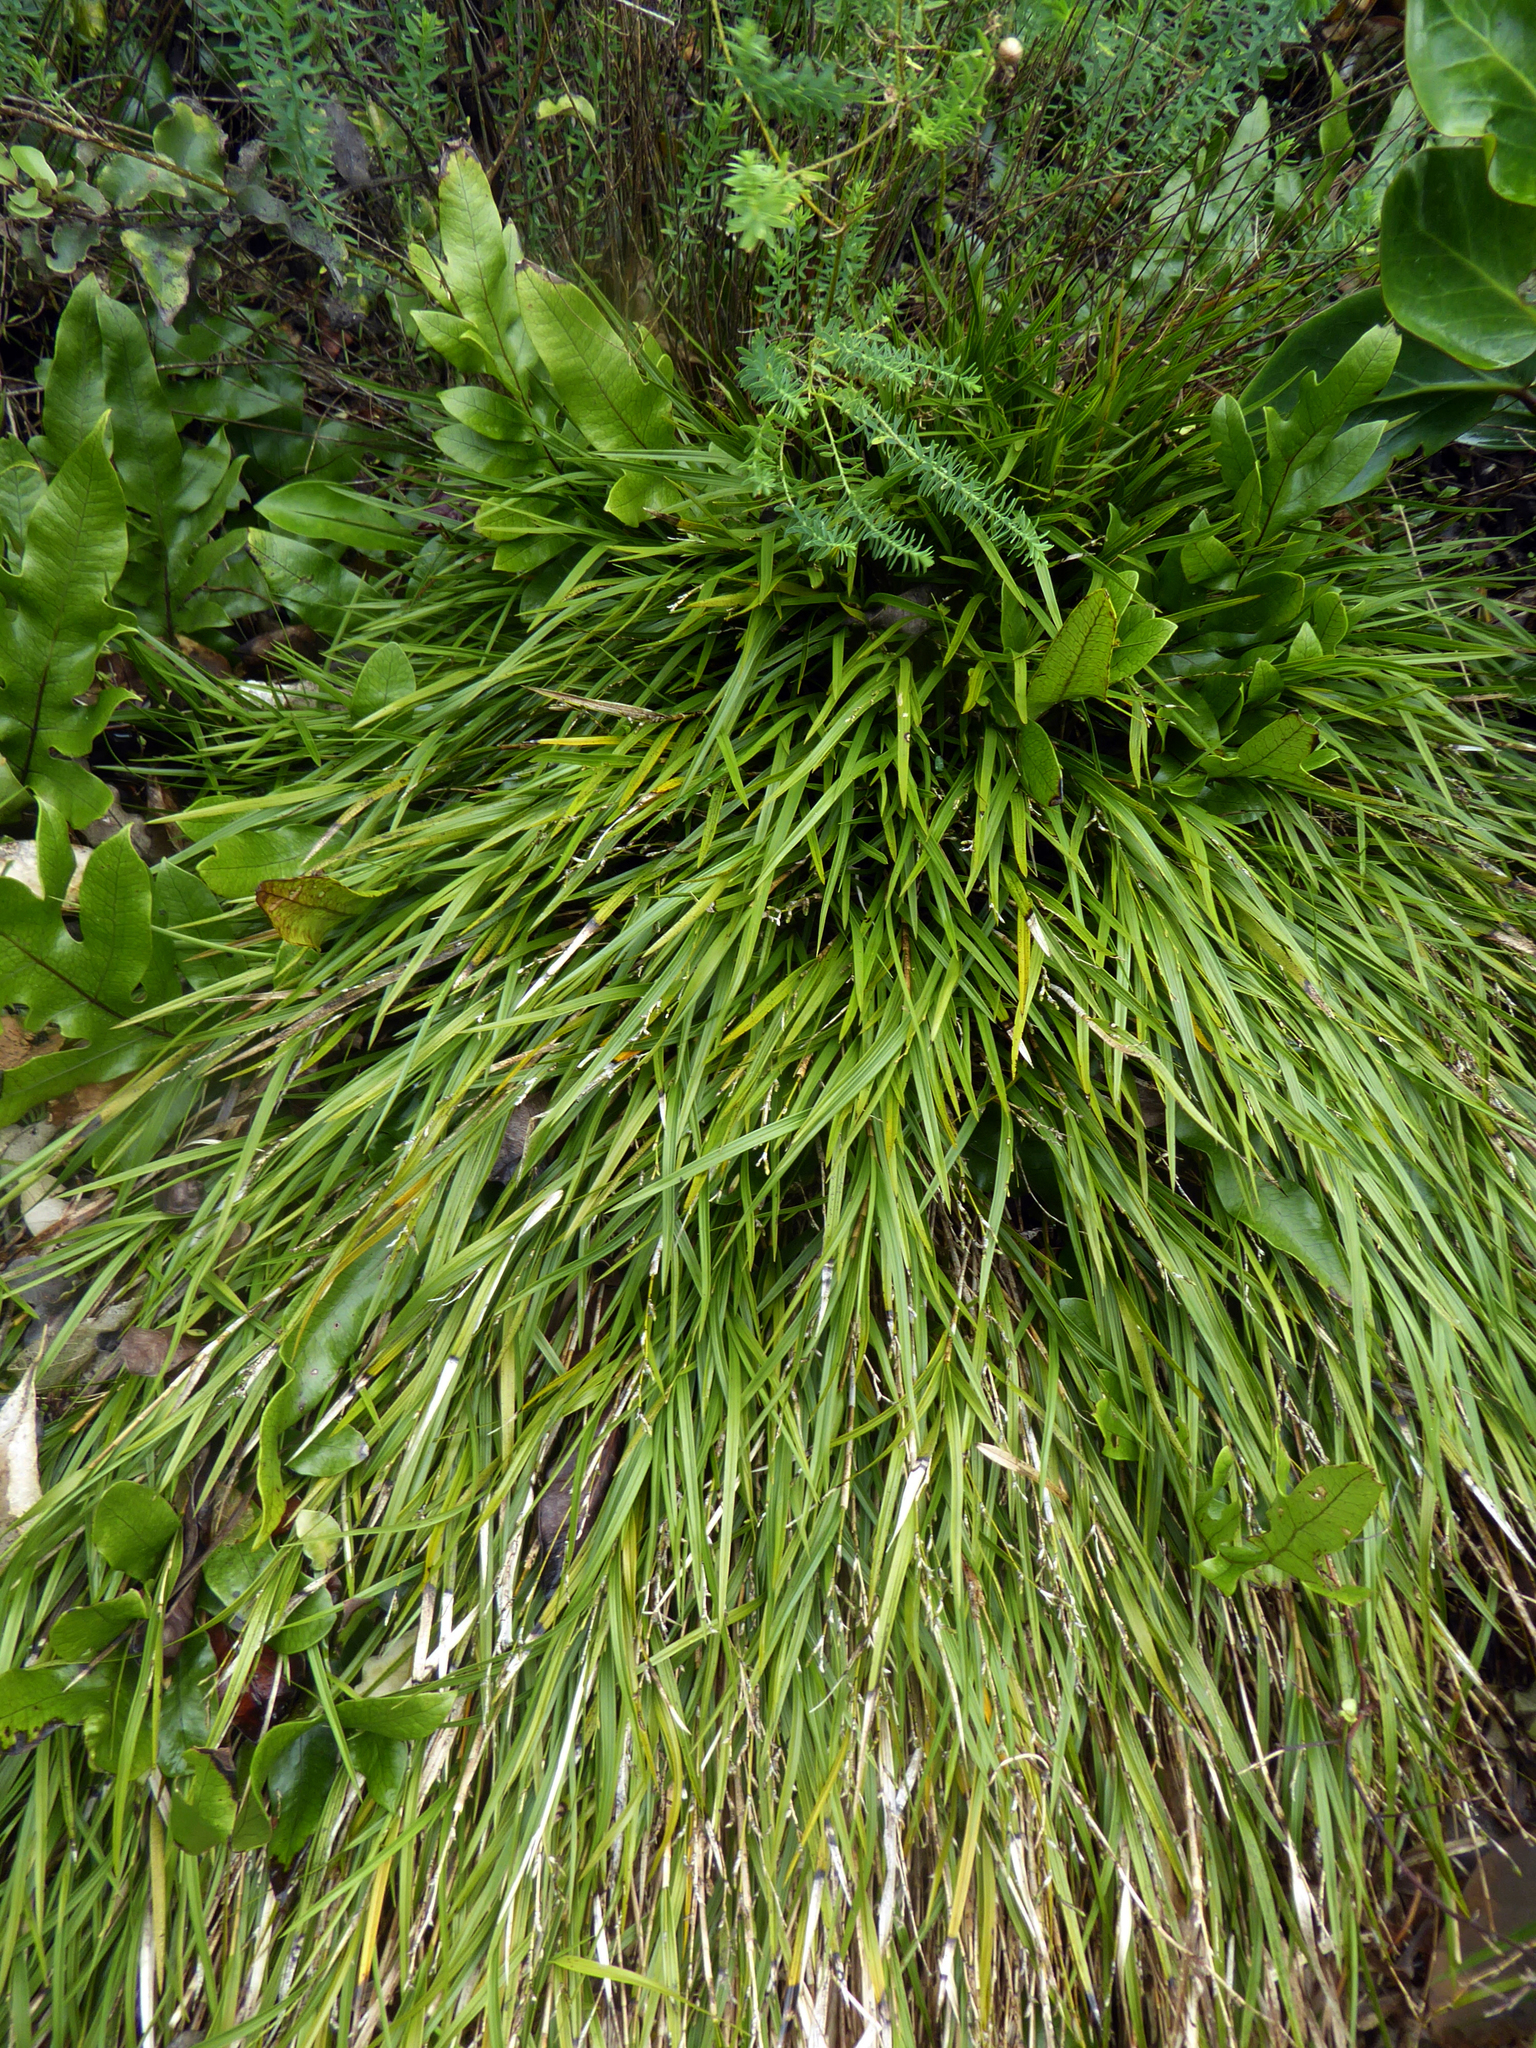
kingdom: Plantae
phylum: Tracheophyta
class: Liliopsida
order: Asparagales
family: Orchidaceae
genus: Earina
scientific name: Earina mucronata
